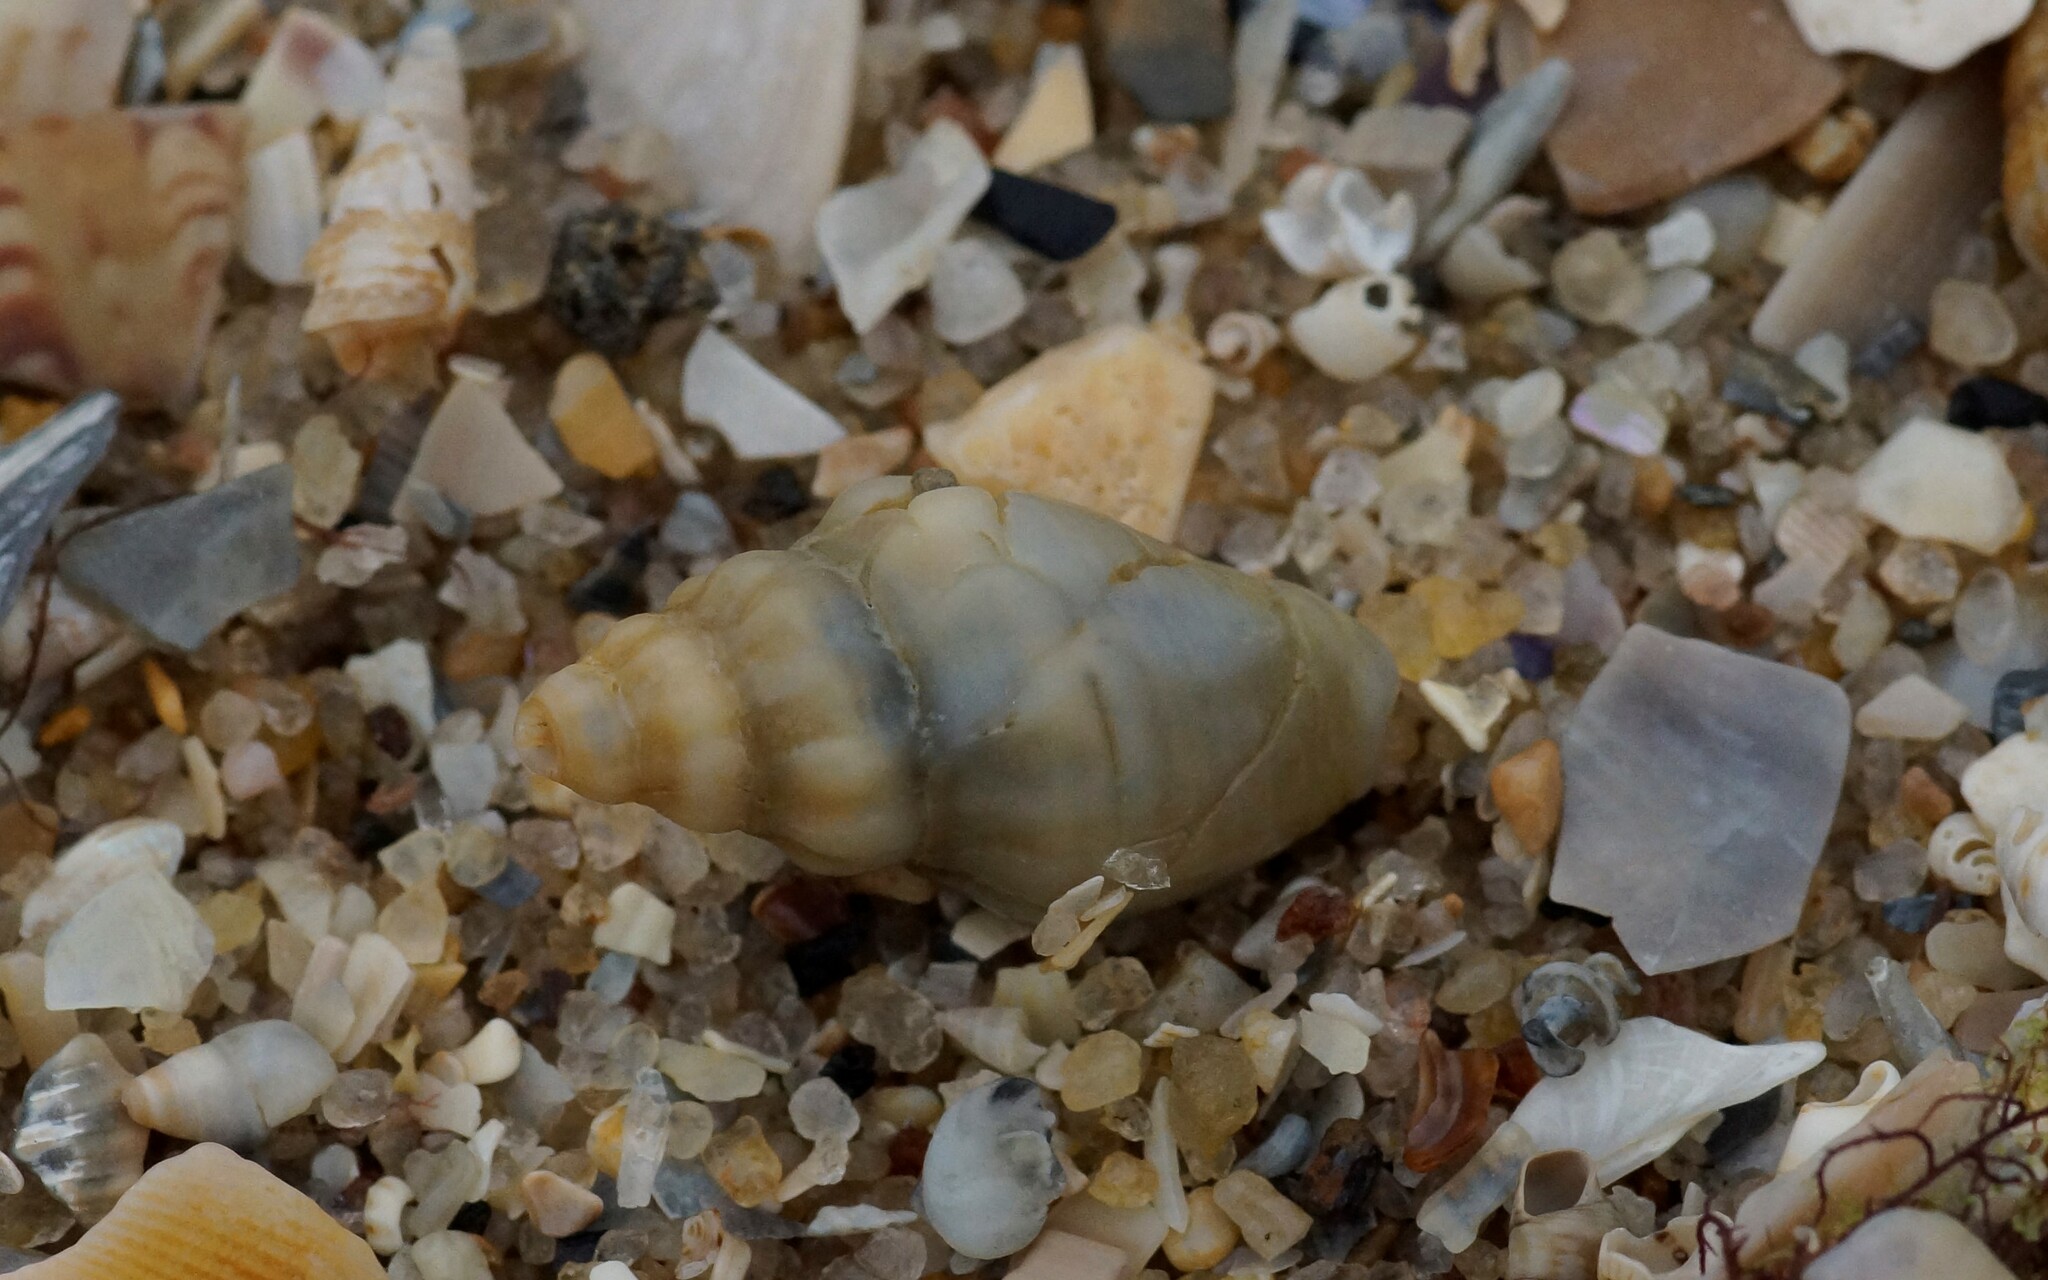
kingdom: Animalia
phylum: Mollusca
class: Gastropoda
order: Neogastropoda
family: Cominellidae
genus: Cominella
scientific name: Cominella eburnea
